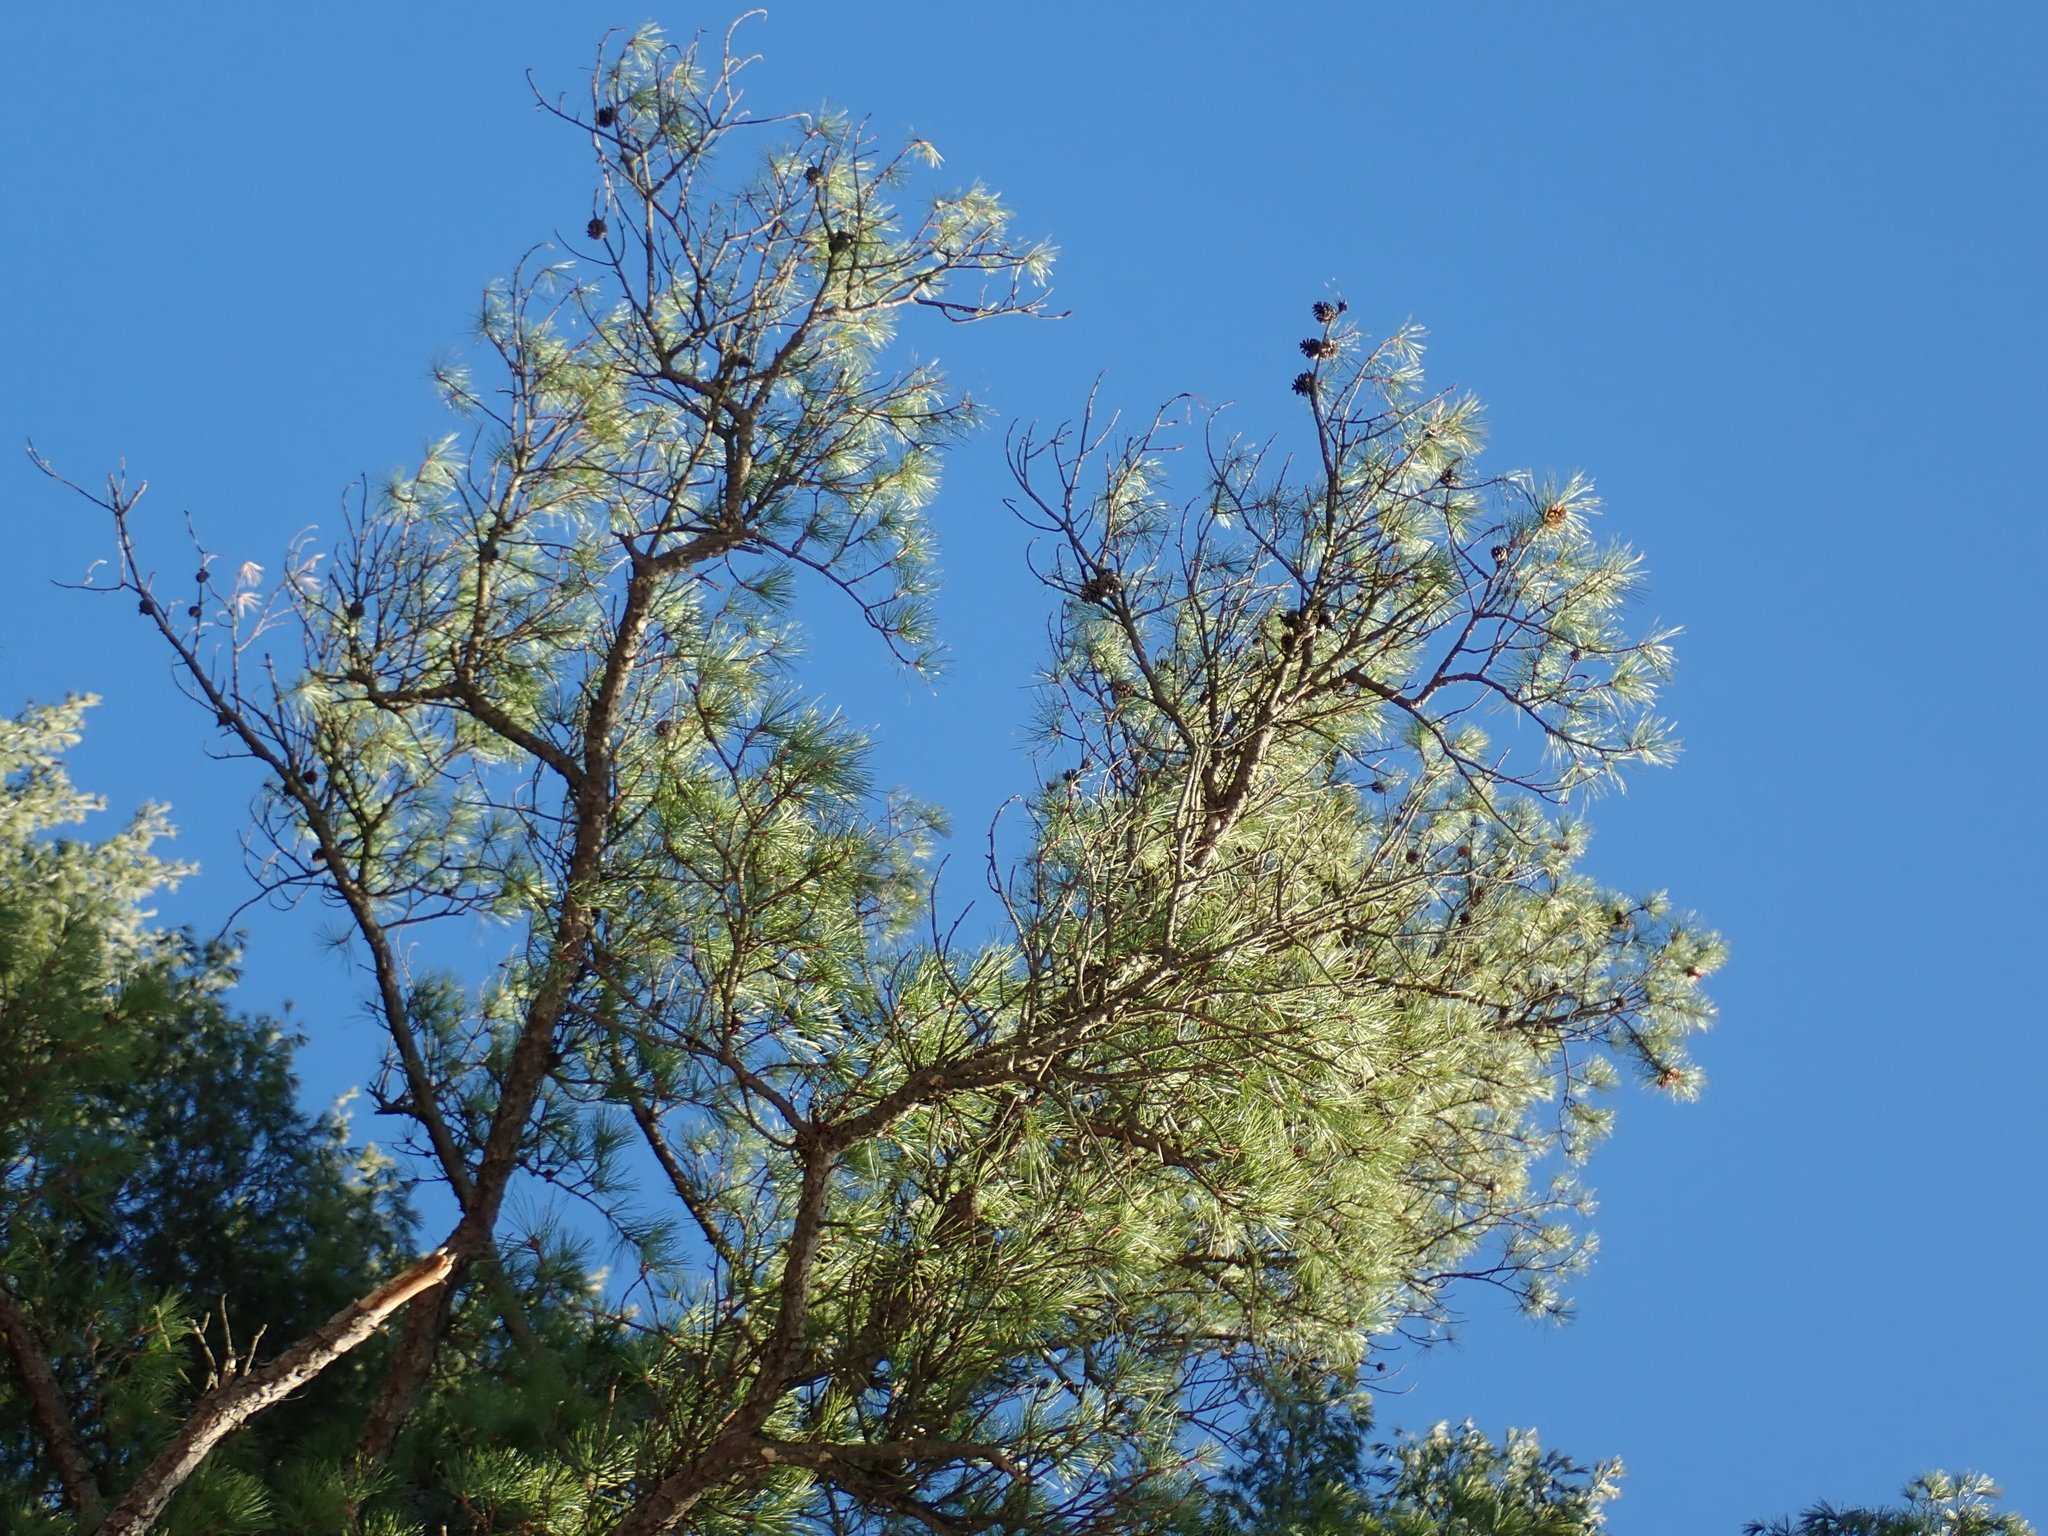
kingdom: Plantae
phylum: Tracheophyta
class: Pinopsida
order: Pinales
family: Pinaceae
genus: Pinus
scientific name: Pinus rigida
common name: Pitch pine
